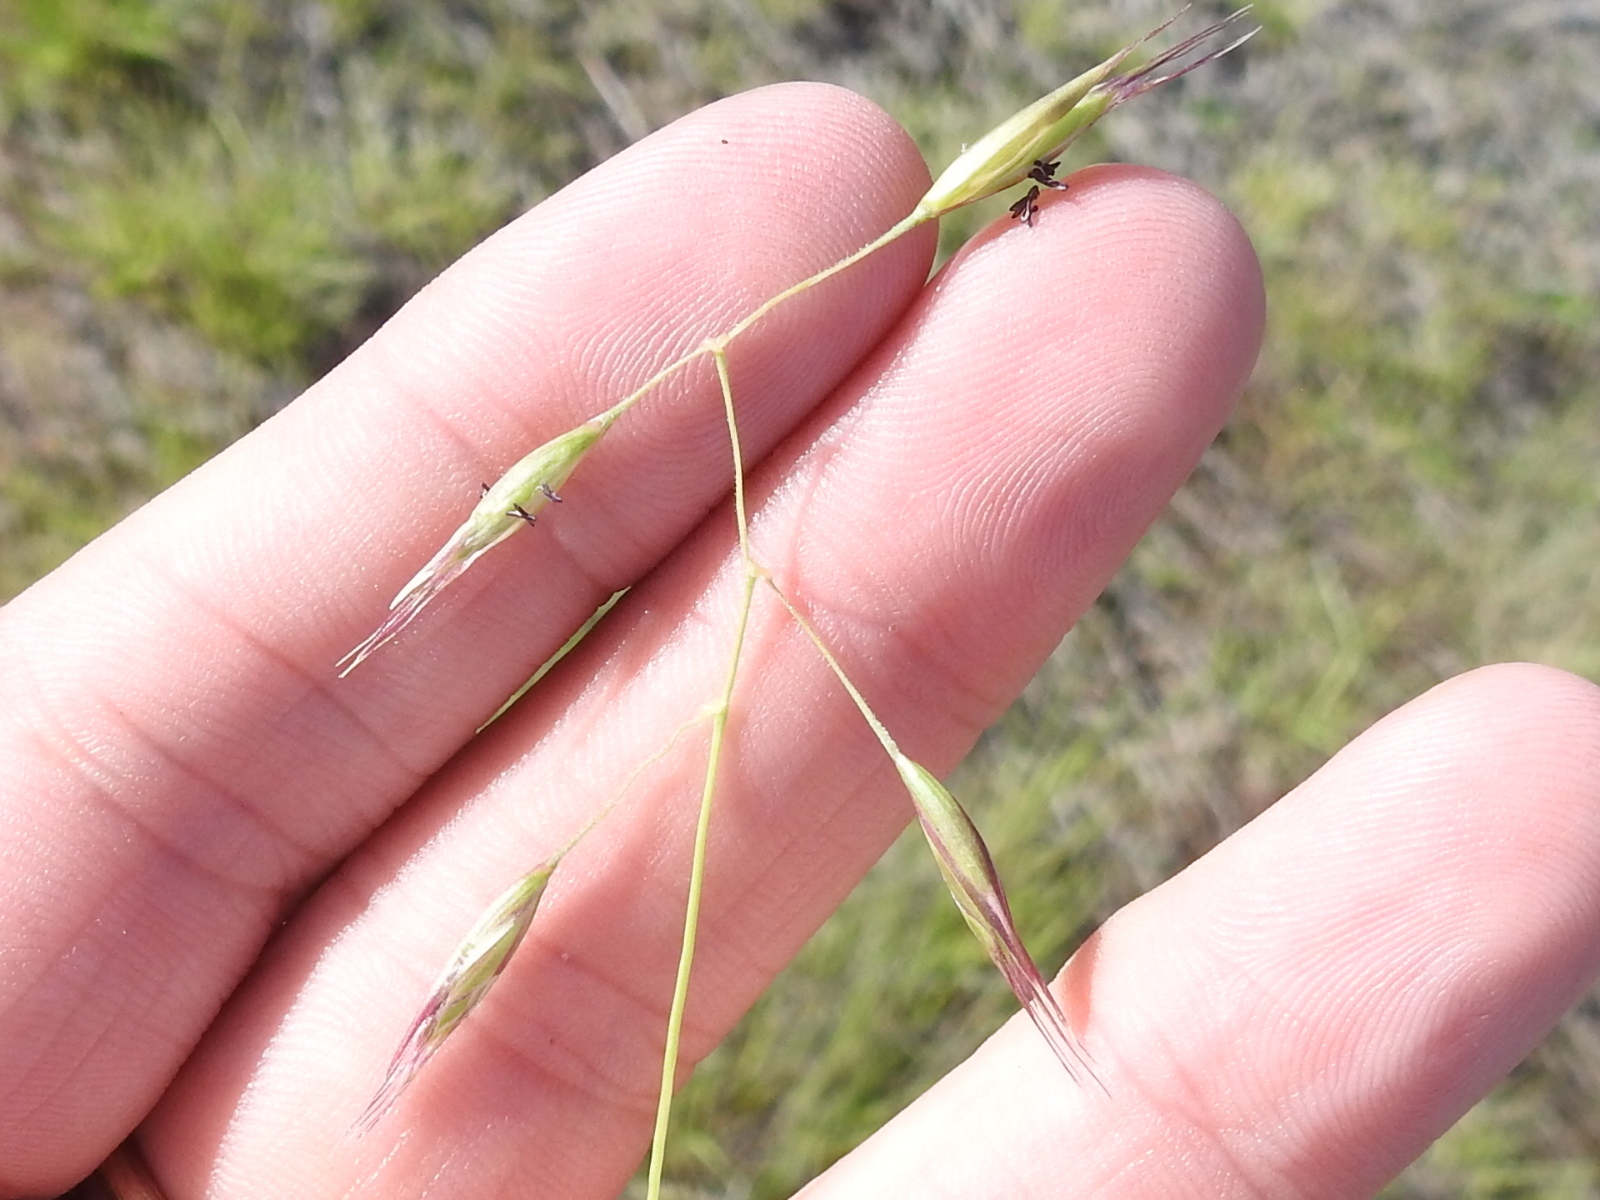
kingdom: Plantae
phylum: Tracheophyta
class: Liliopsida
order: Poales
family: Poaceae
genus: Danthonia
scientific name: Danthonia californica
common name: California oat grass
